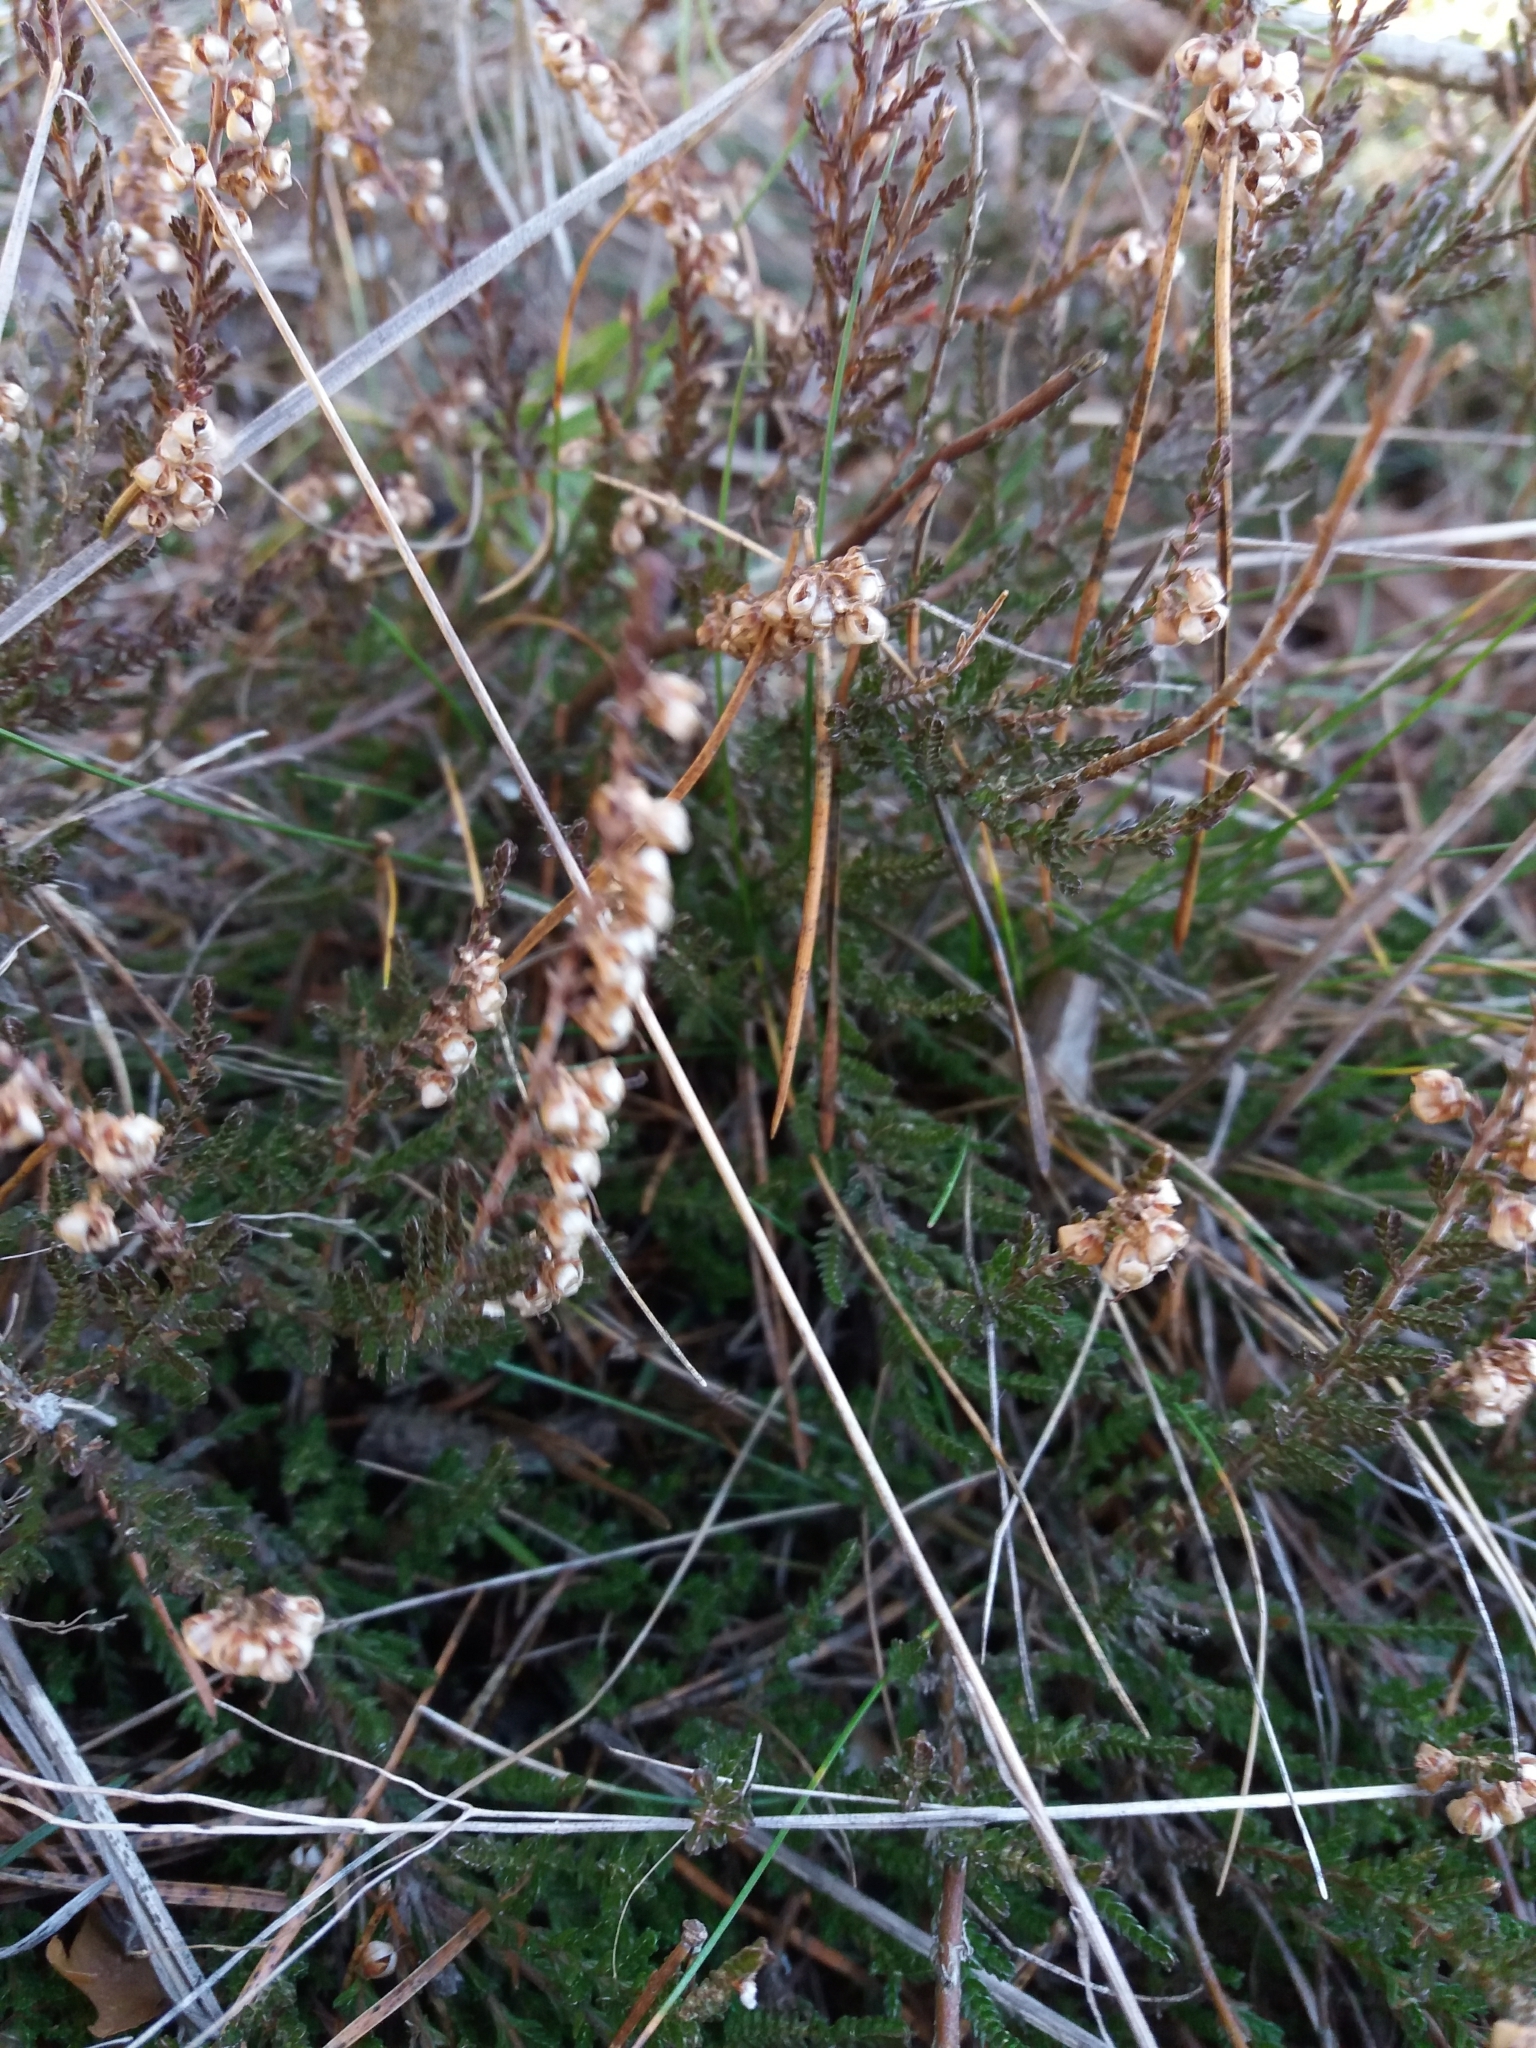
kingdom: Plantae
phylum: Tracheophyta
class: Magnoliopsida
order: Ericales
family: Ericaceae
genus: Calluna
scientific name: Calluna vulgaris
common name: Heather
